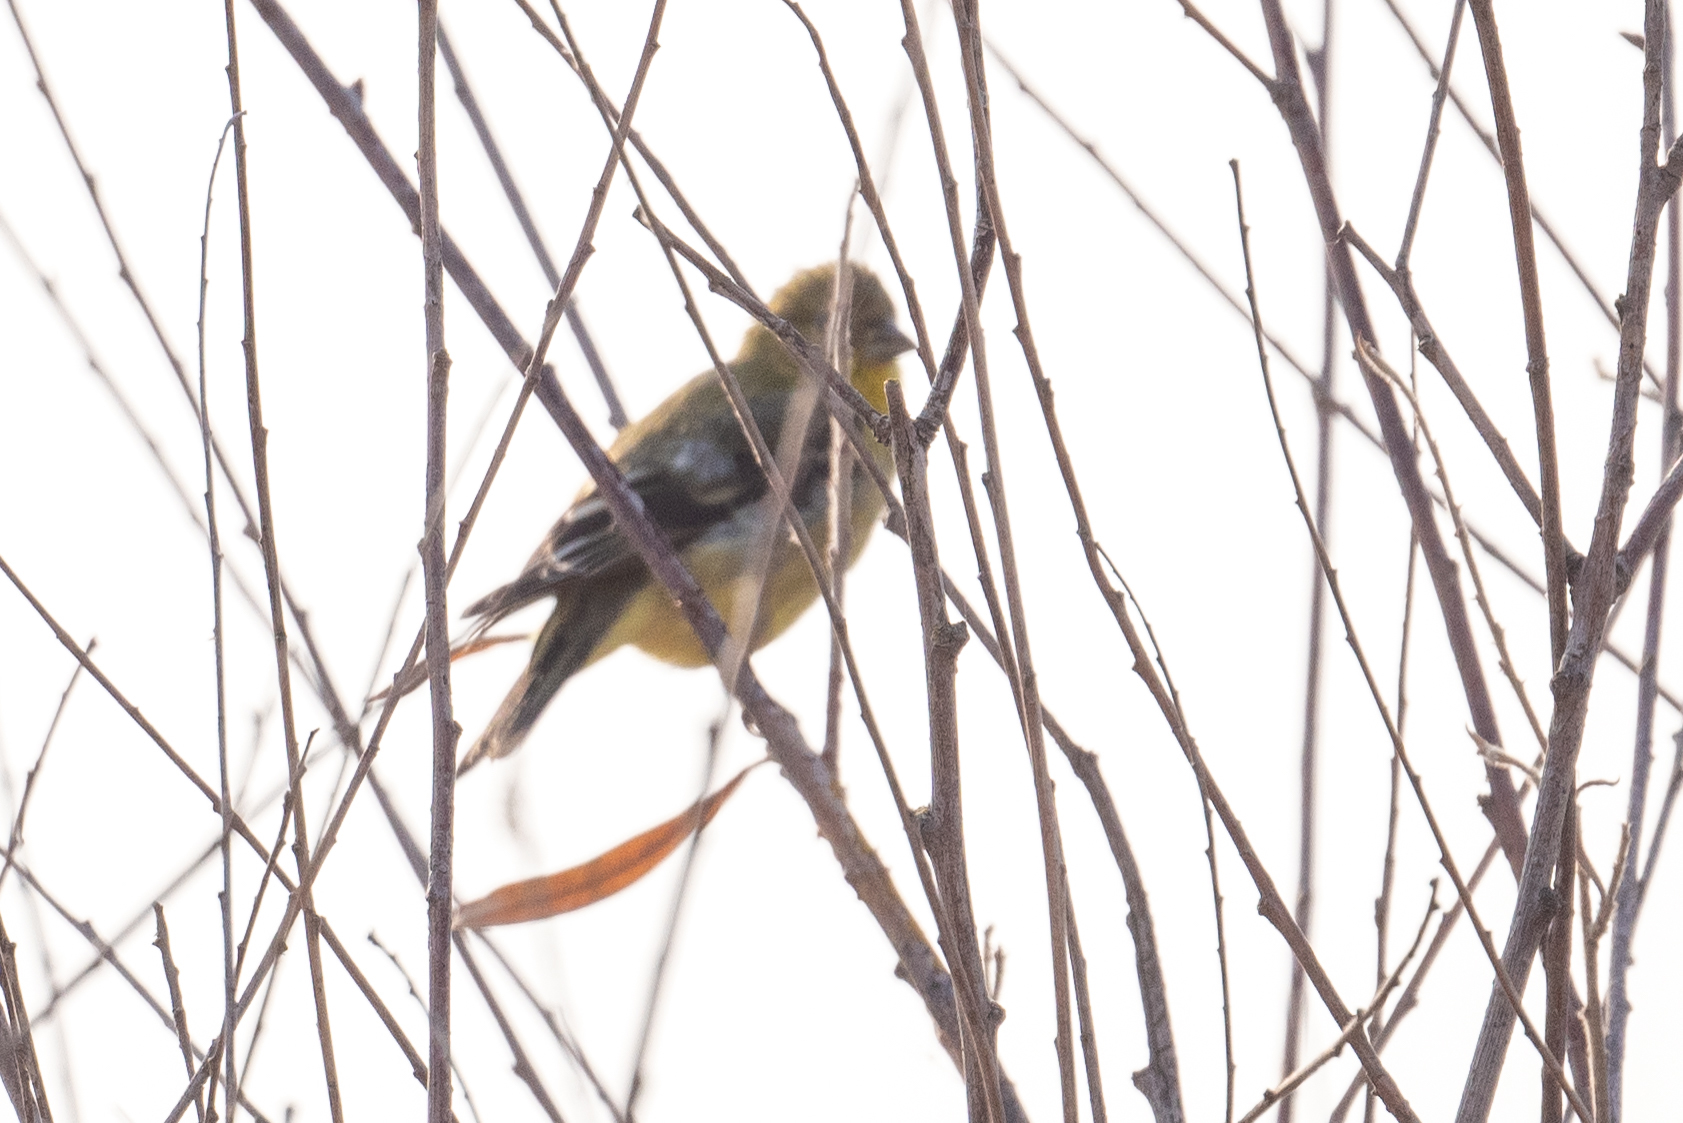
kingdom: Animalia
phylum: Chordata
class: Aves
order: Passeriformes
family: Fringillidae
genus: Spinus
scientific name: Spinus psaltria
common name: Lesser goldfinch
